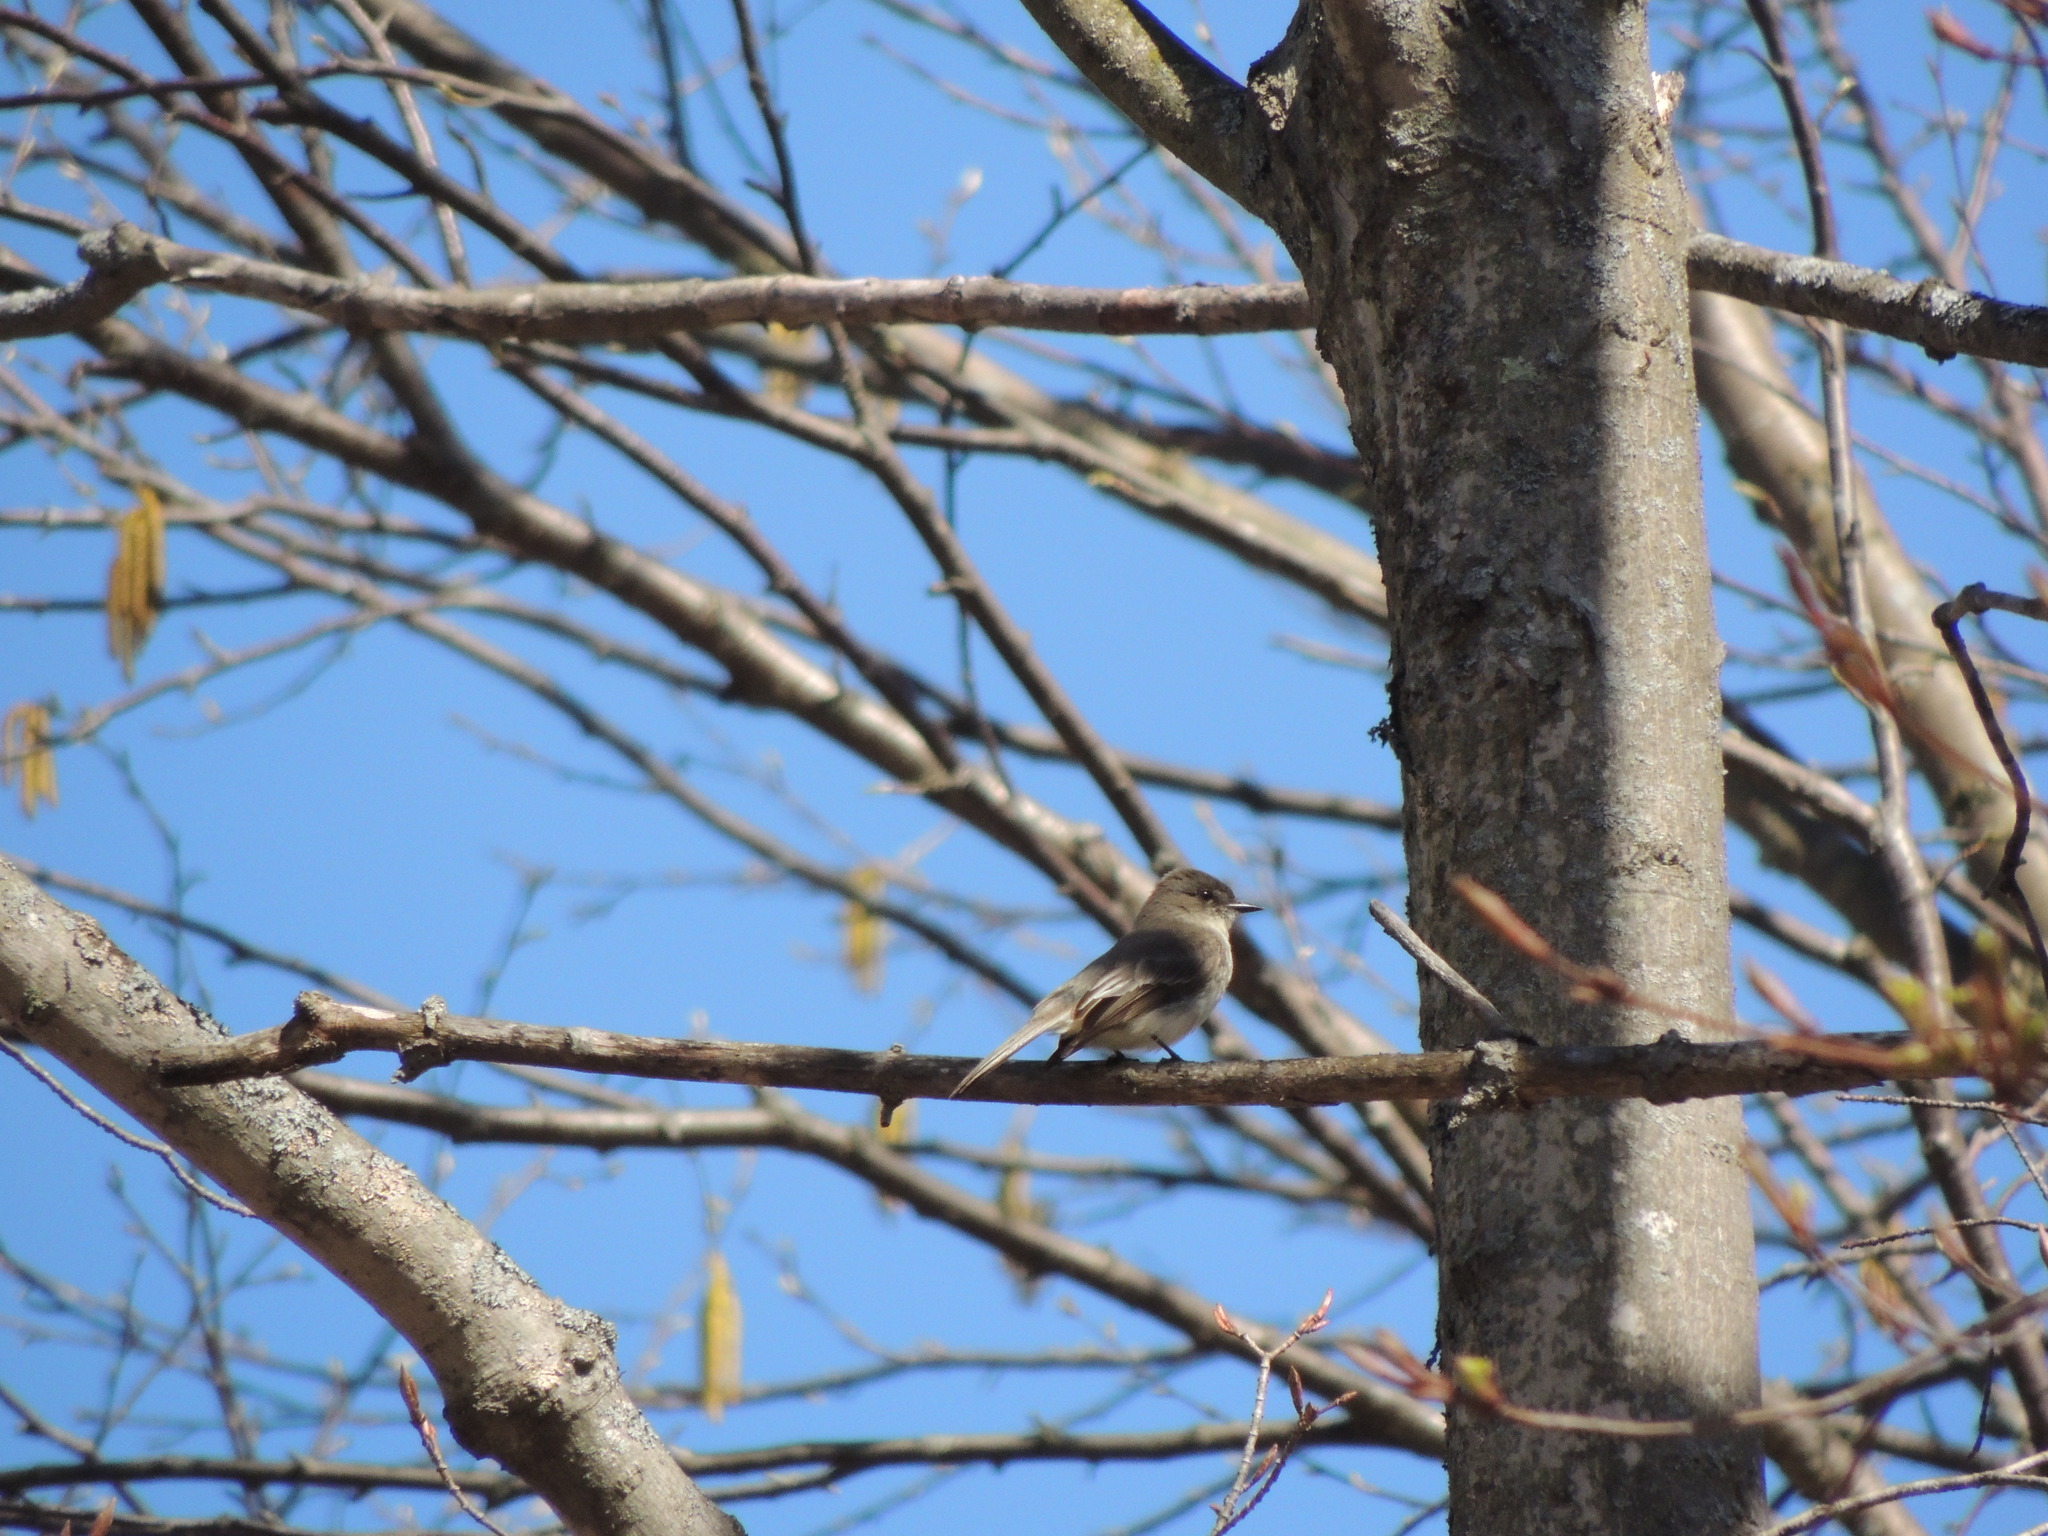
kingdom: Animalia
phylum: Chordata
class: Aves
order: Passeriformes
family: Tyrannidae
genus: Sayornis
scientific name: Sayornis phoebe
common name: Eastern phoebe
